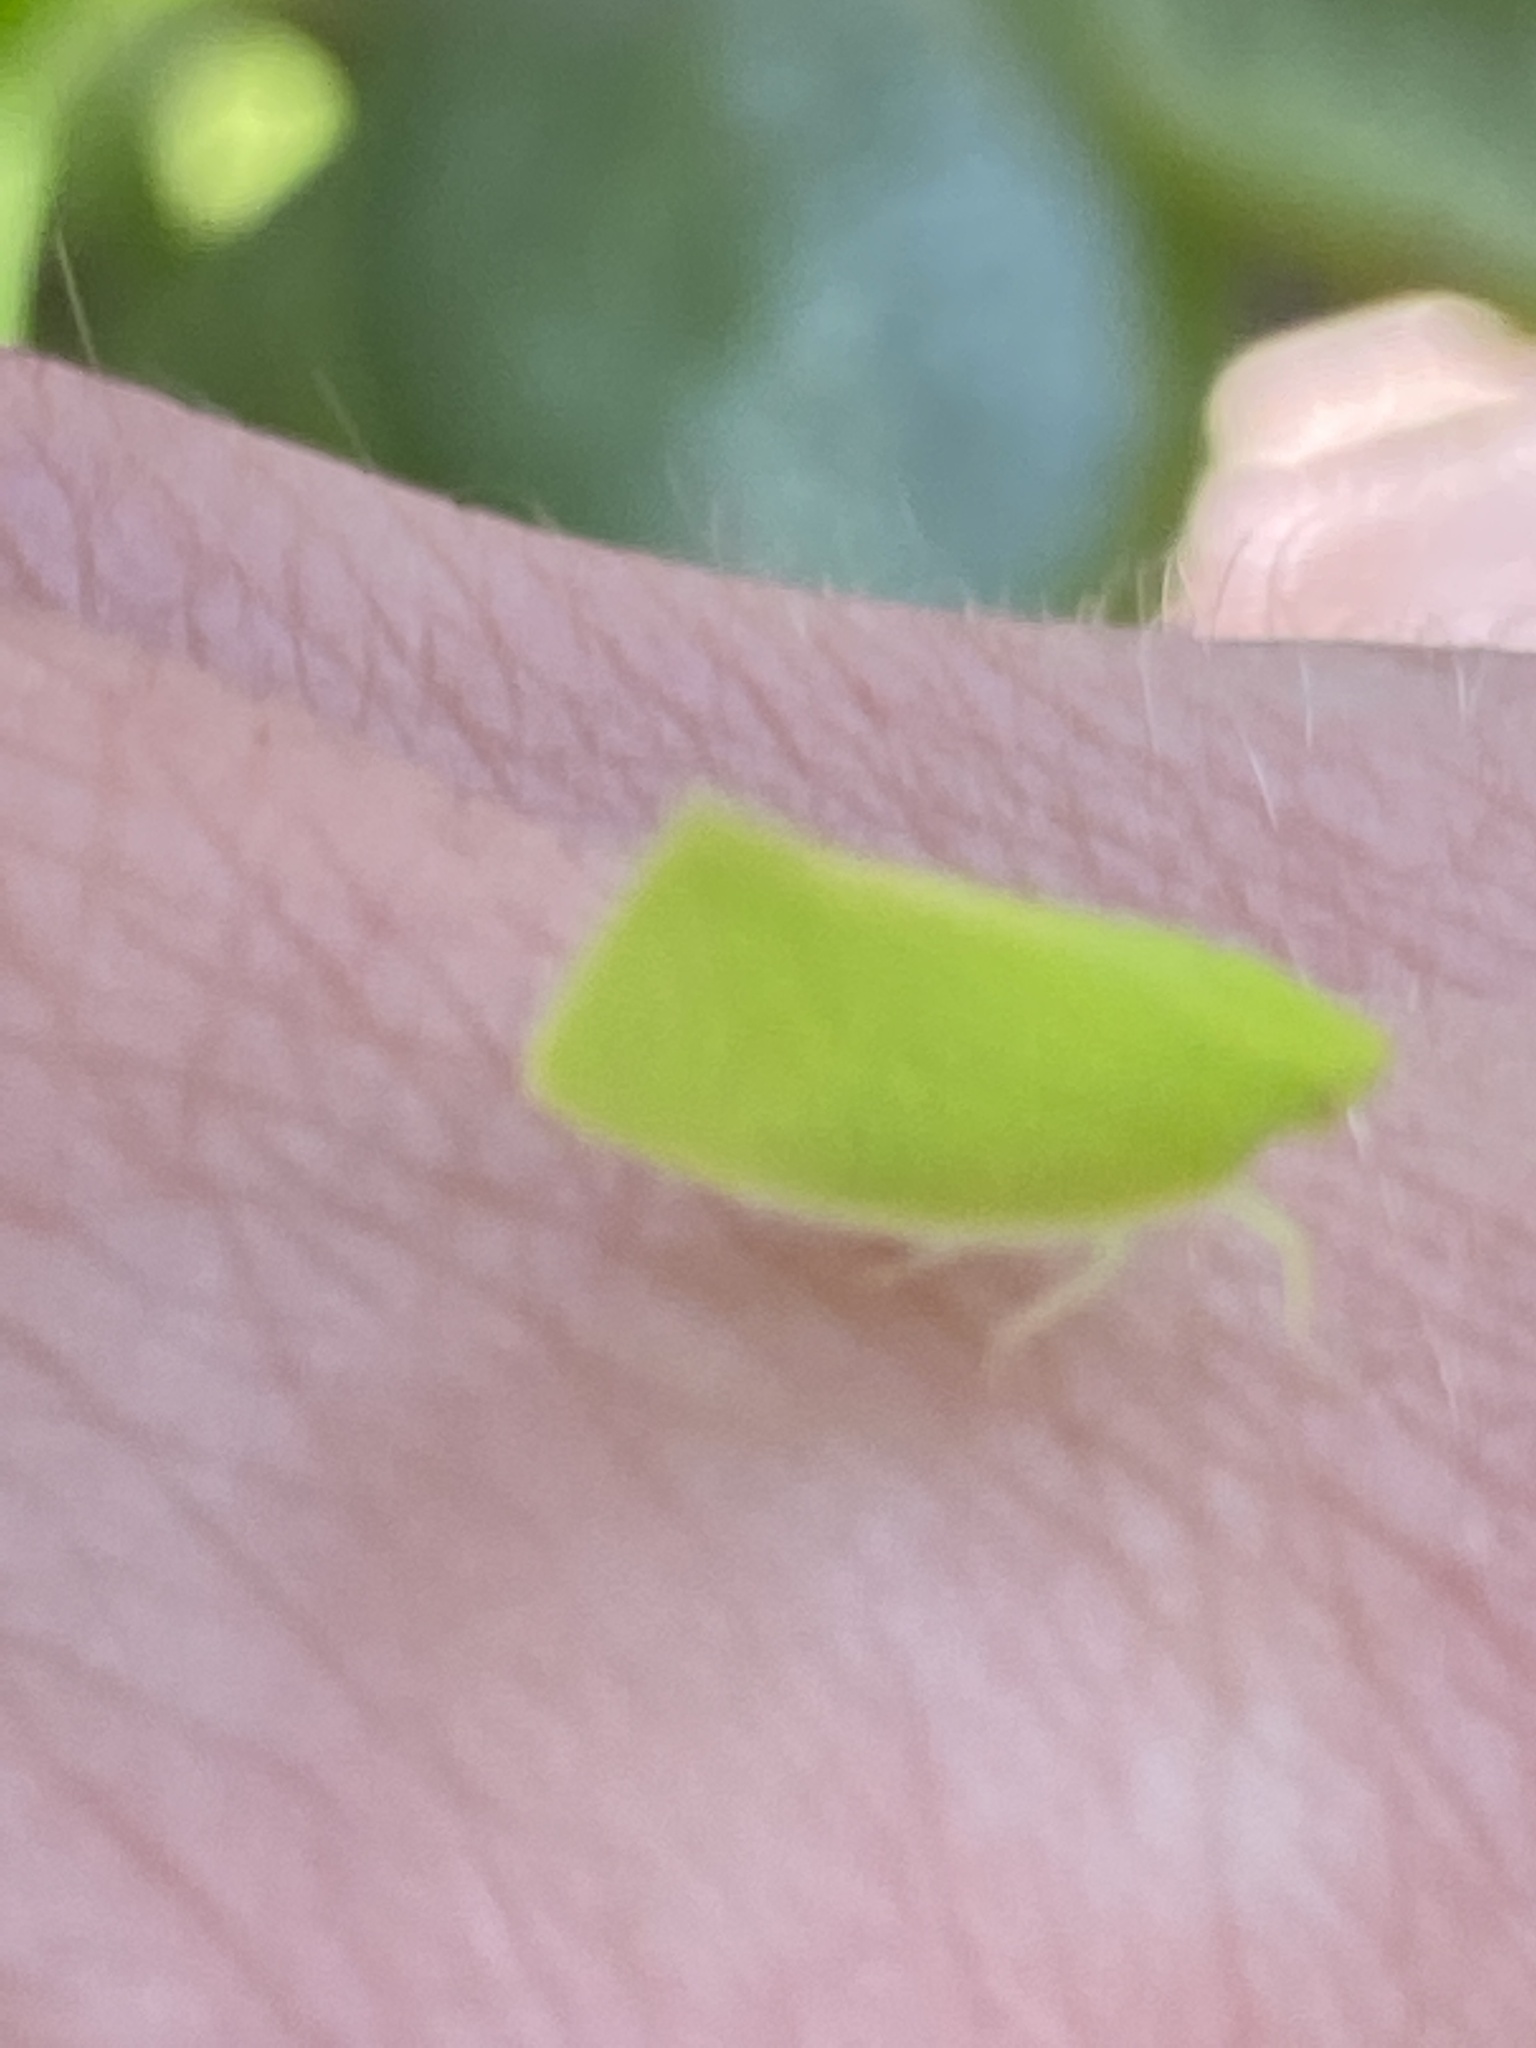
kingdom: Animalia
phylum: Arthropoda
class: Insecta
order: Hemiptera
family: Flatidae
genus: Siphanta
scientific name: Siphanta acuta
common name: Torpedo bug
